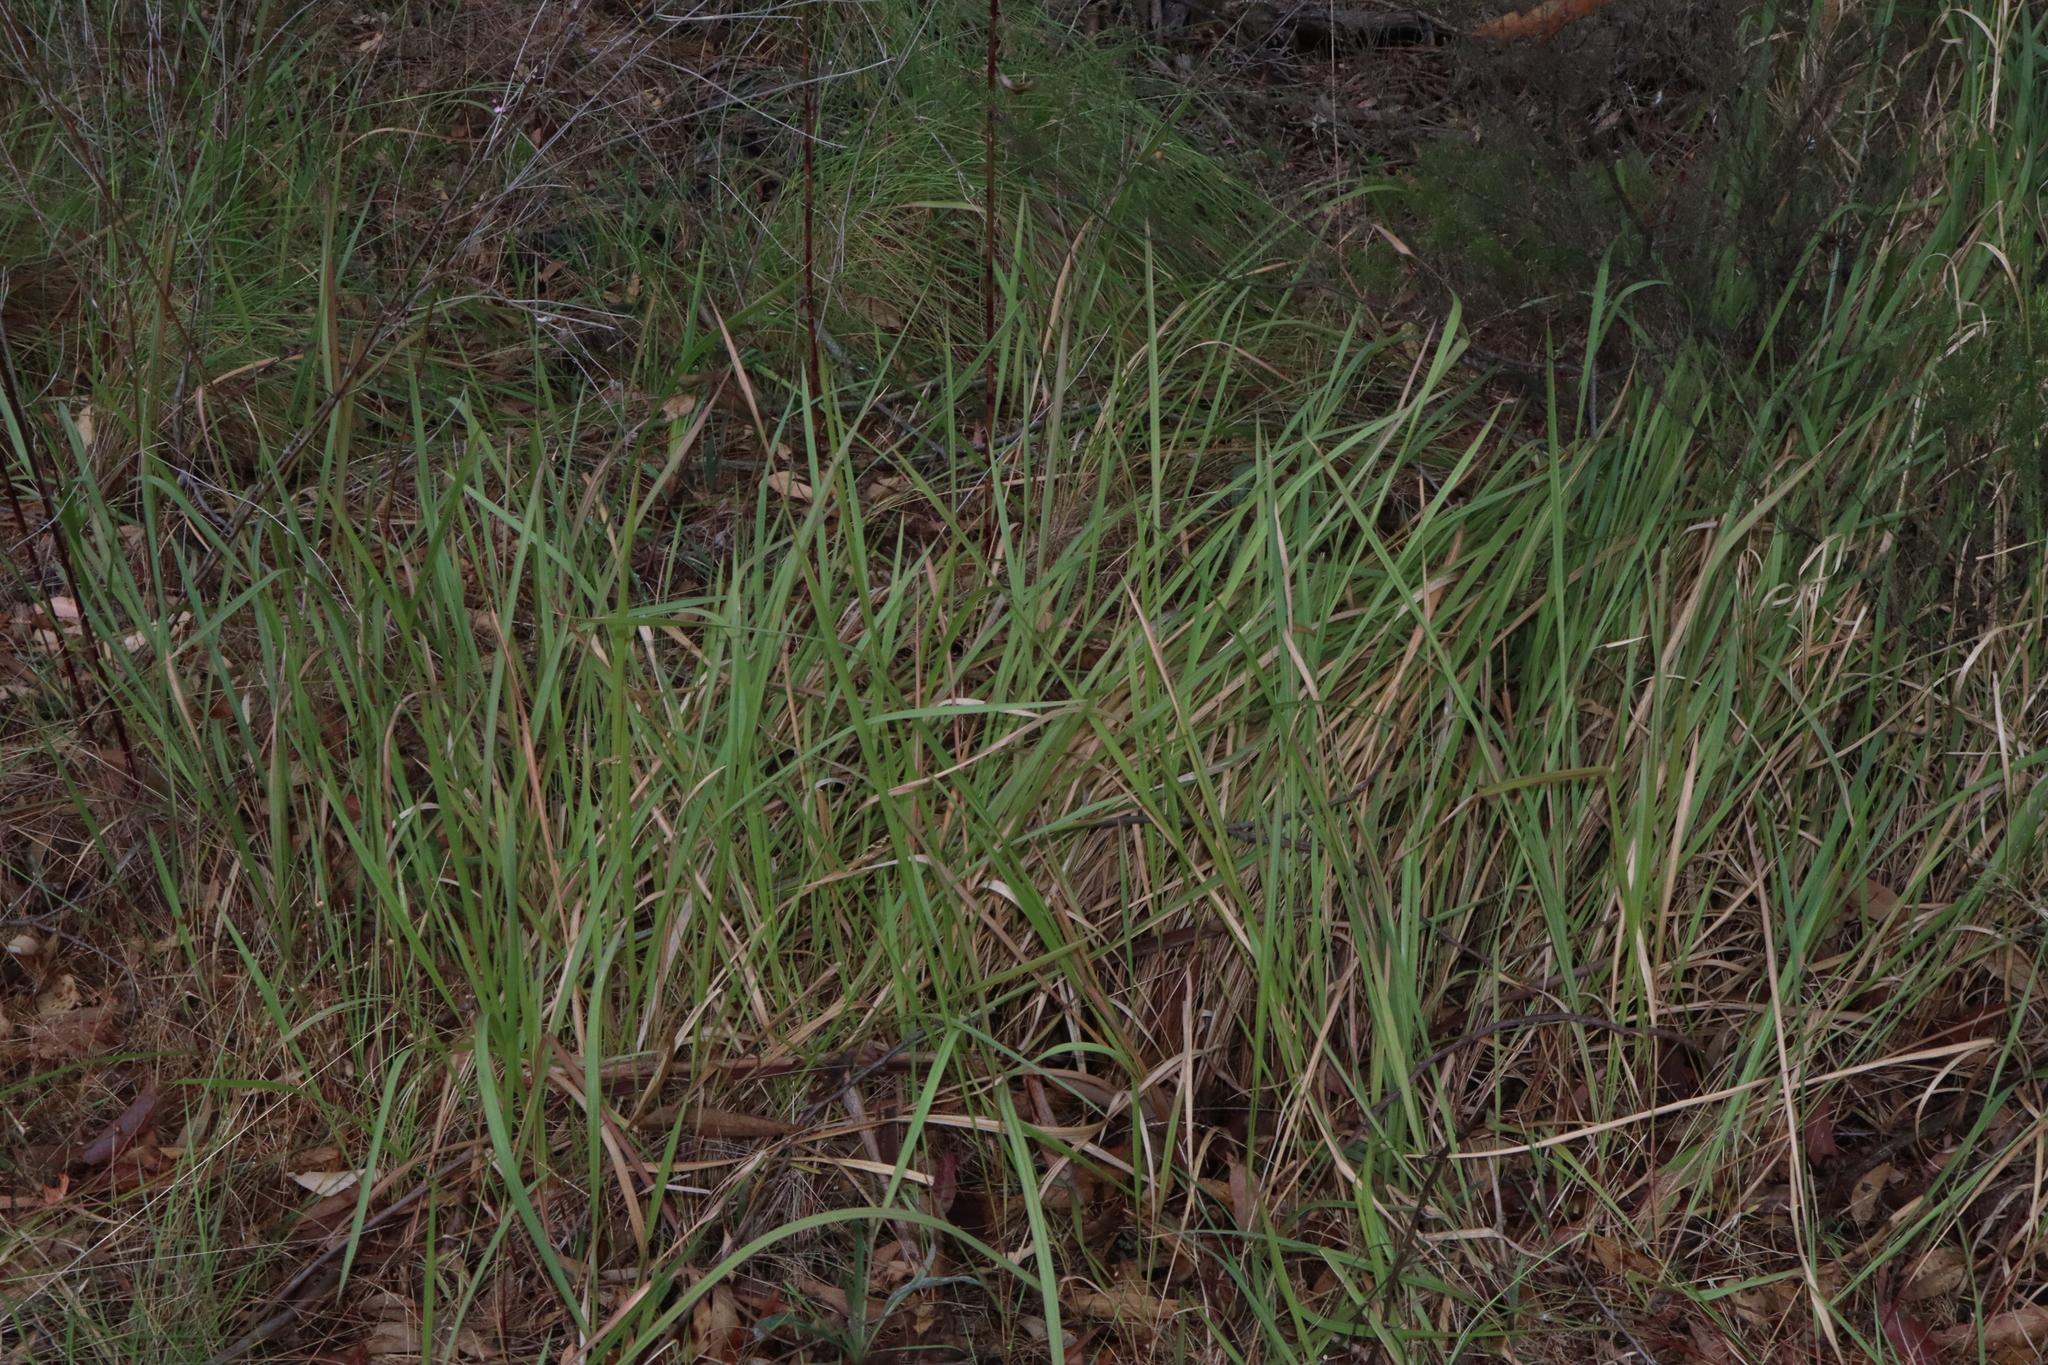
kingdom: Plantae
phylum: Tracheophyta
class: Liliopsida
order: Poales
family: Poaceae
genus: Imperata
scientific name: Imperata cylindrica
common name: Cogongrass
